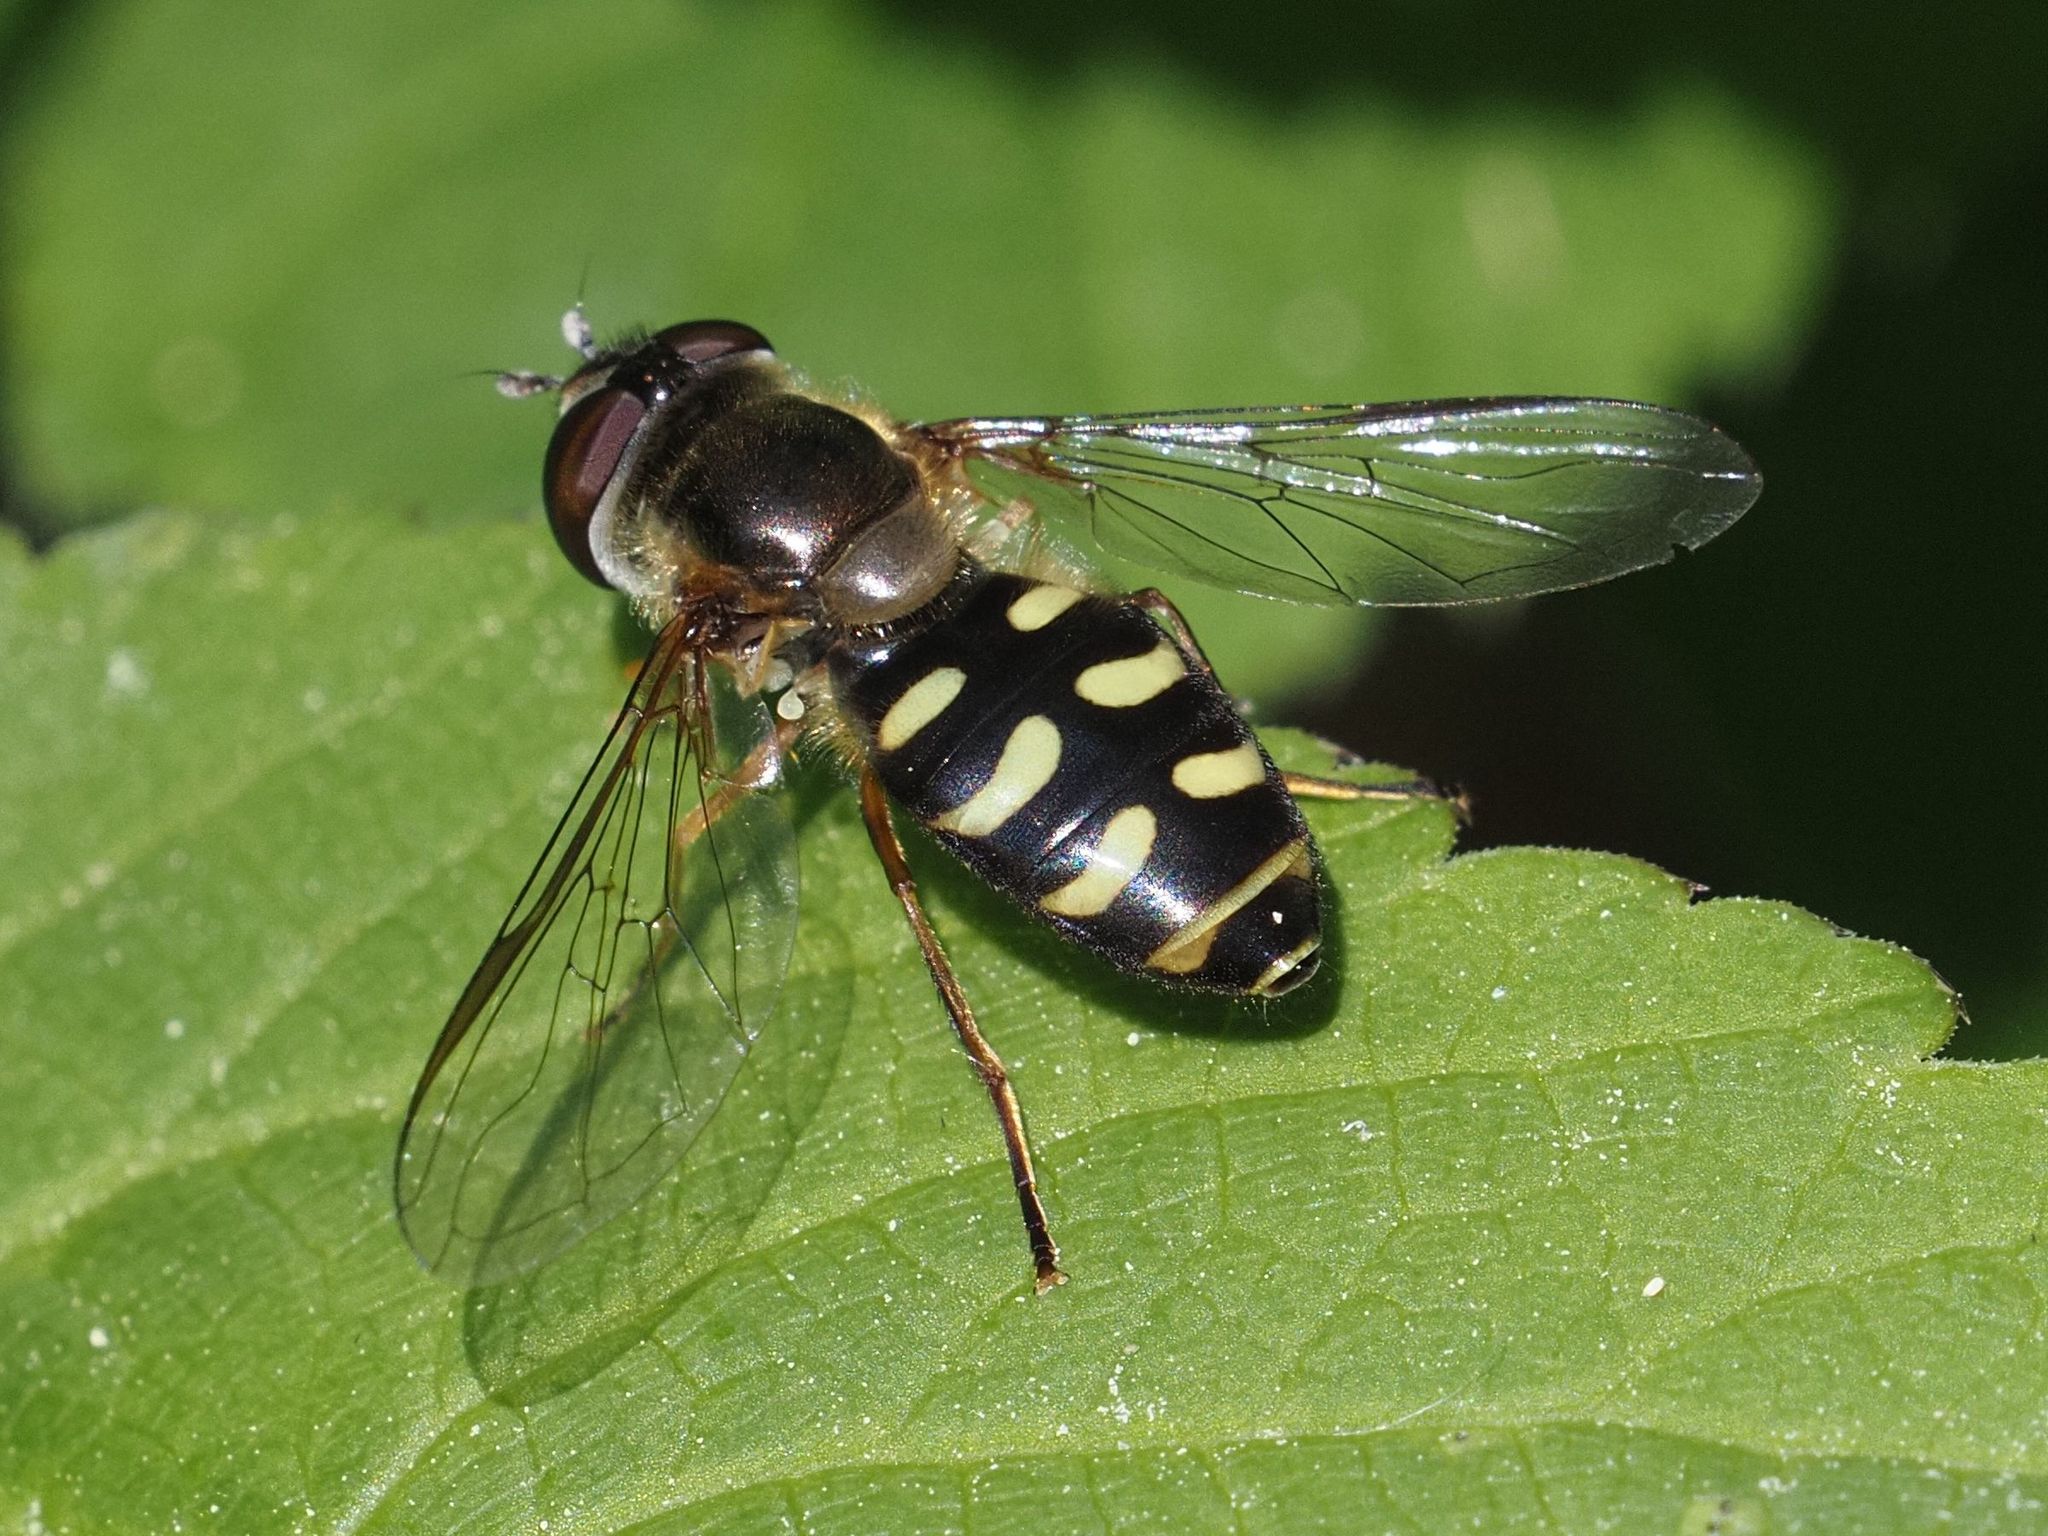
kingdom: Animalia
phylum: Arthropoda
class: Insecta
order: Diptera
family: Syrphidae
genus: Lapposyrphus
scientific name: Lapposyrphus lapponicus
